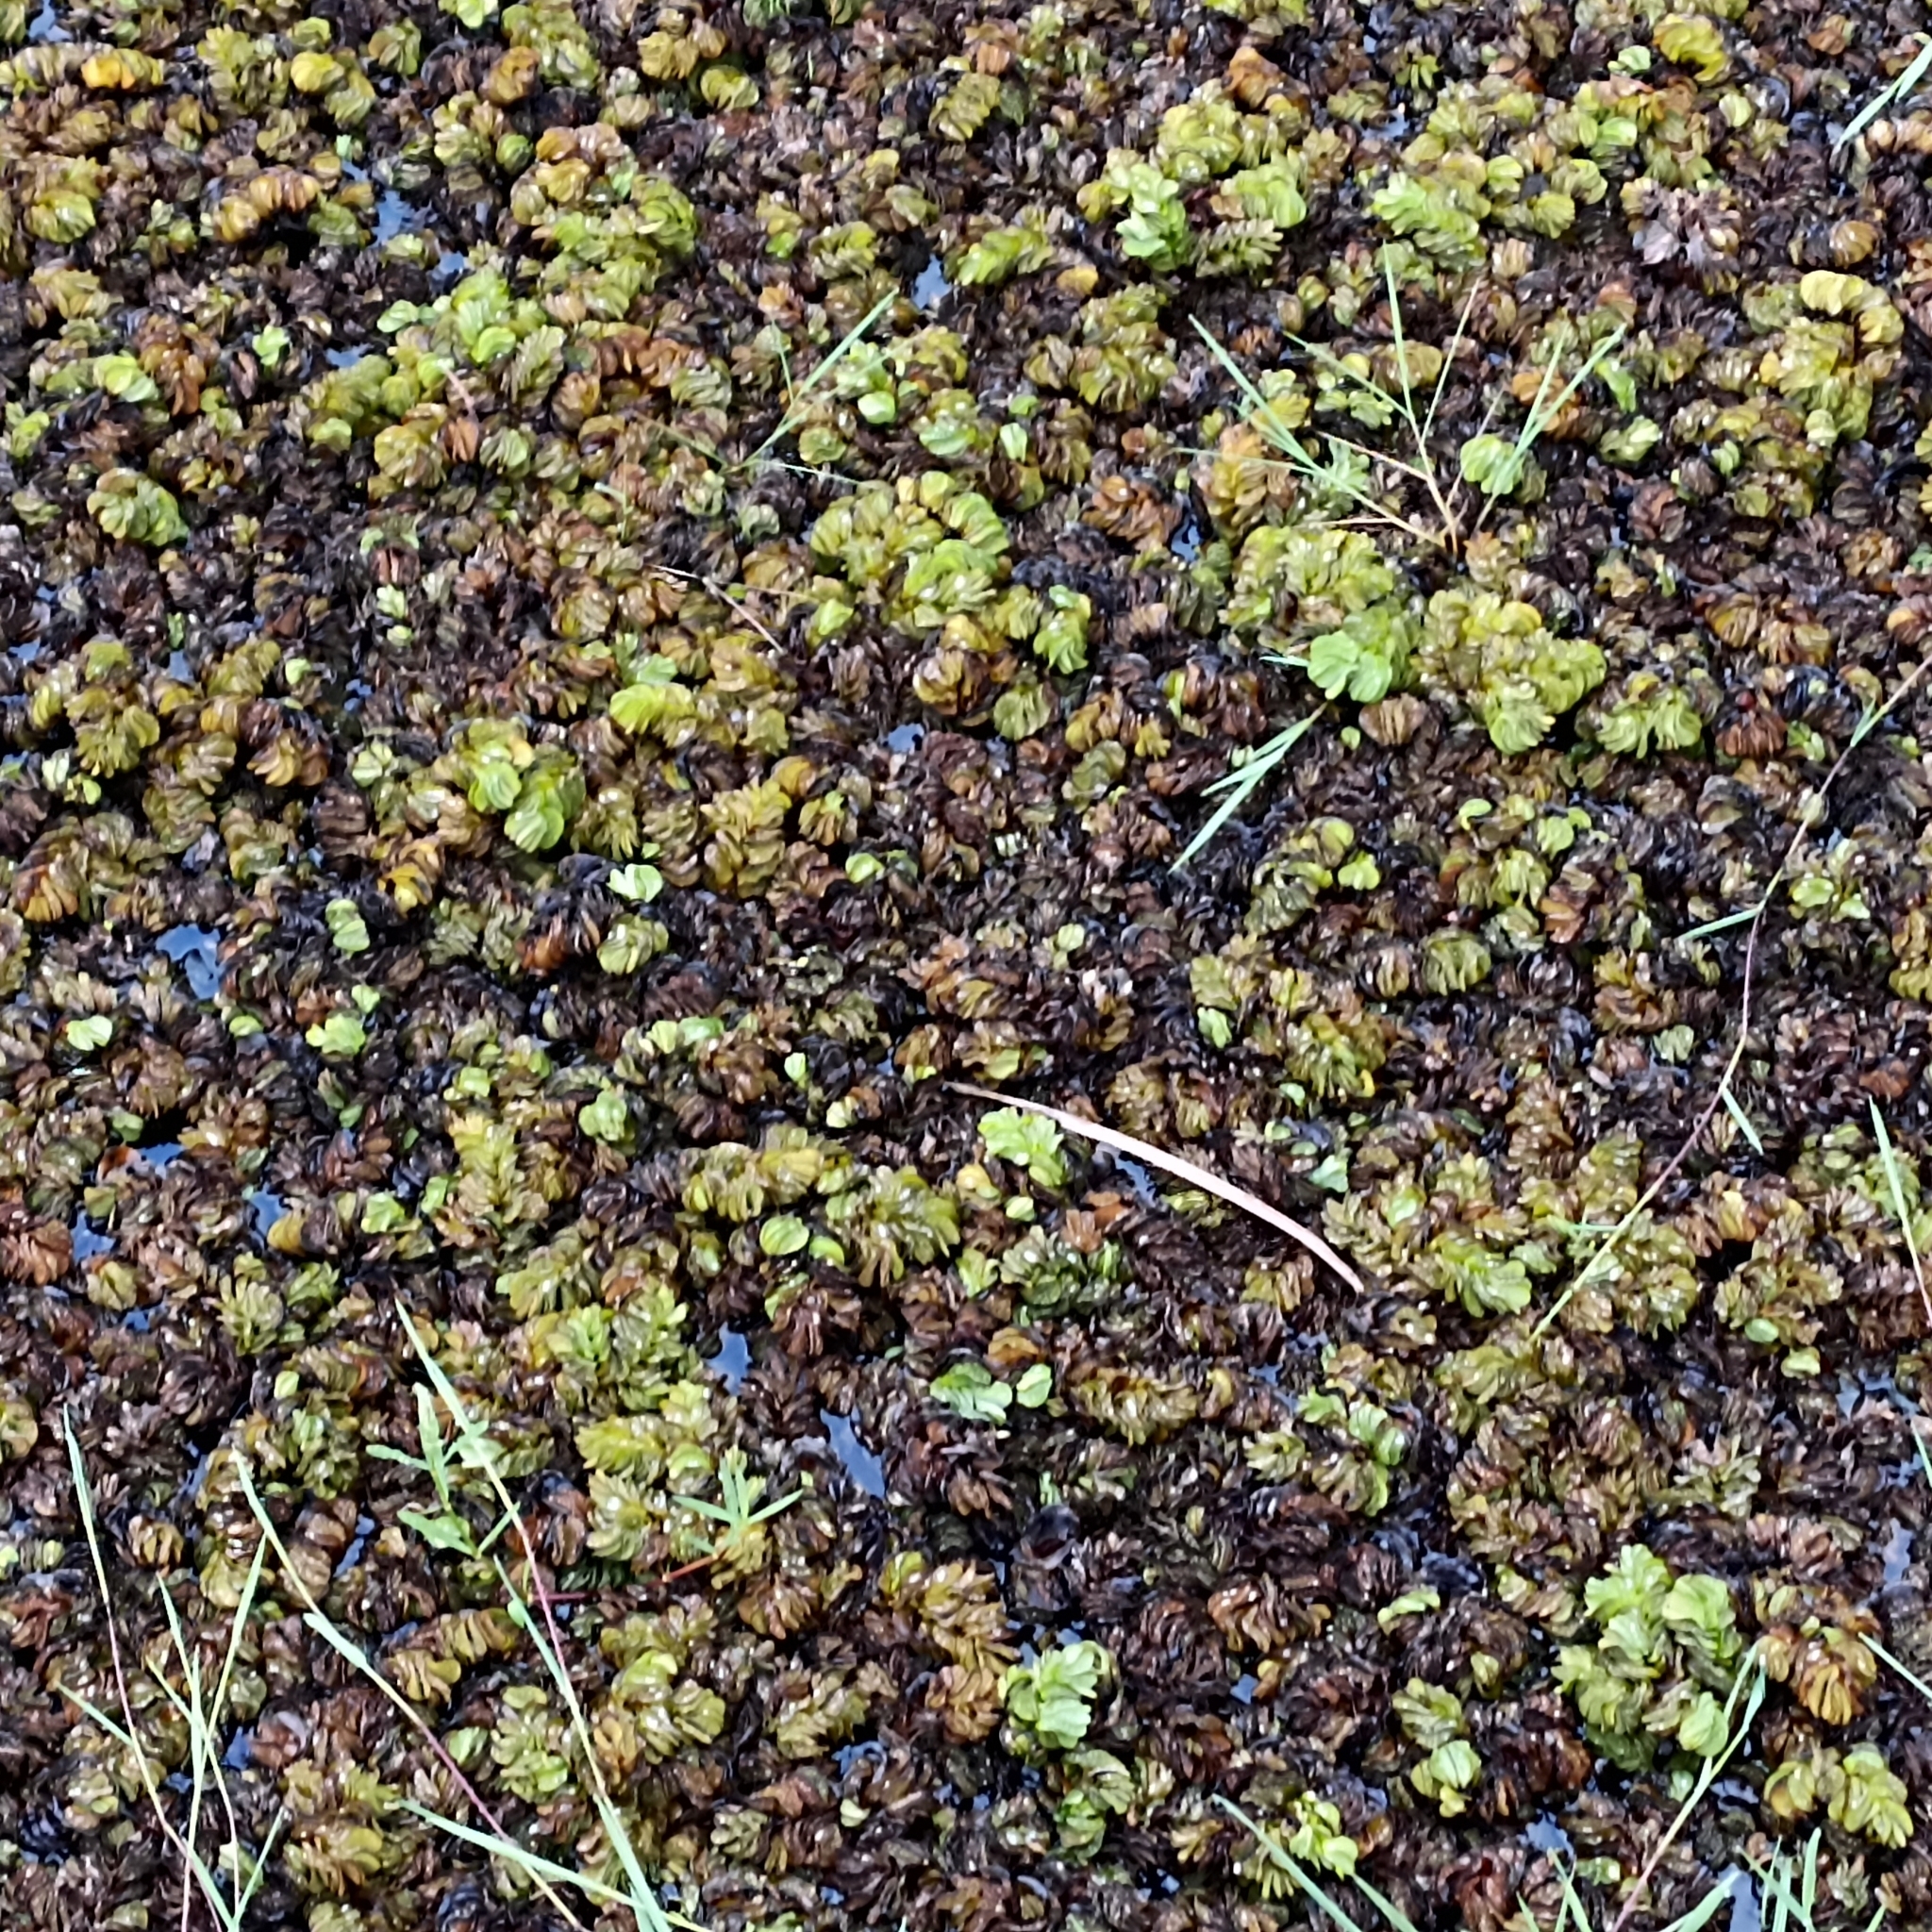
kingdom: Plantae
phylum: Tracheophyta
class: Polypodiopsida
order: Salviniales
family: Salviniaceae
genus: Salvinia
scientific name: Salvinia molesta
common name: Kariba weed
